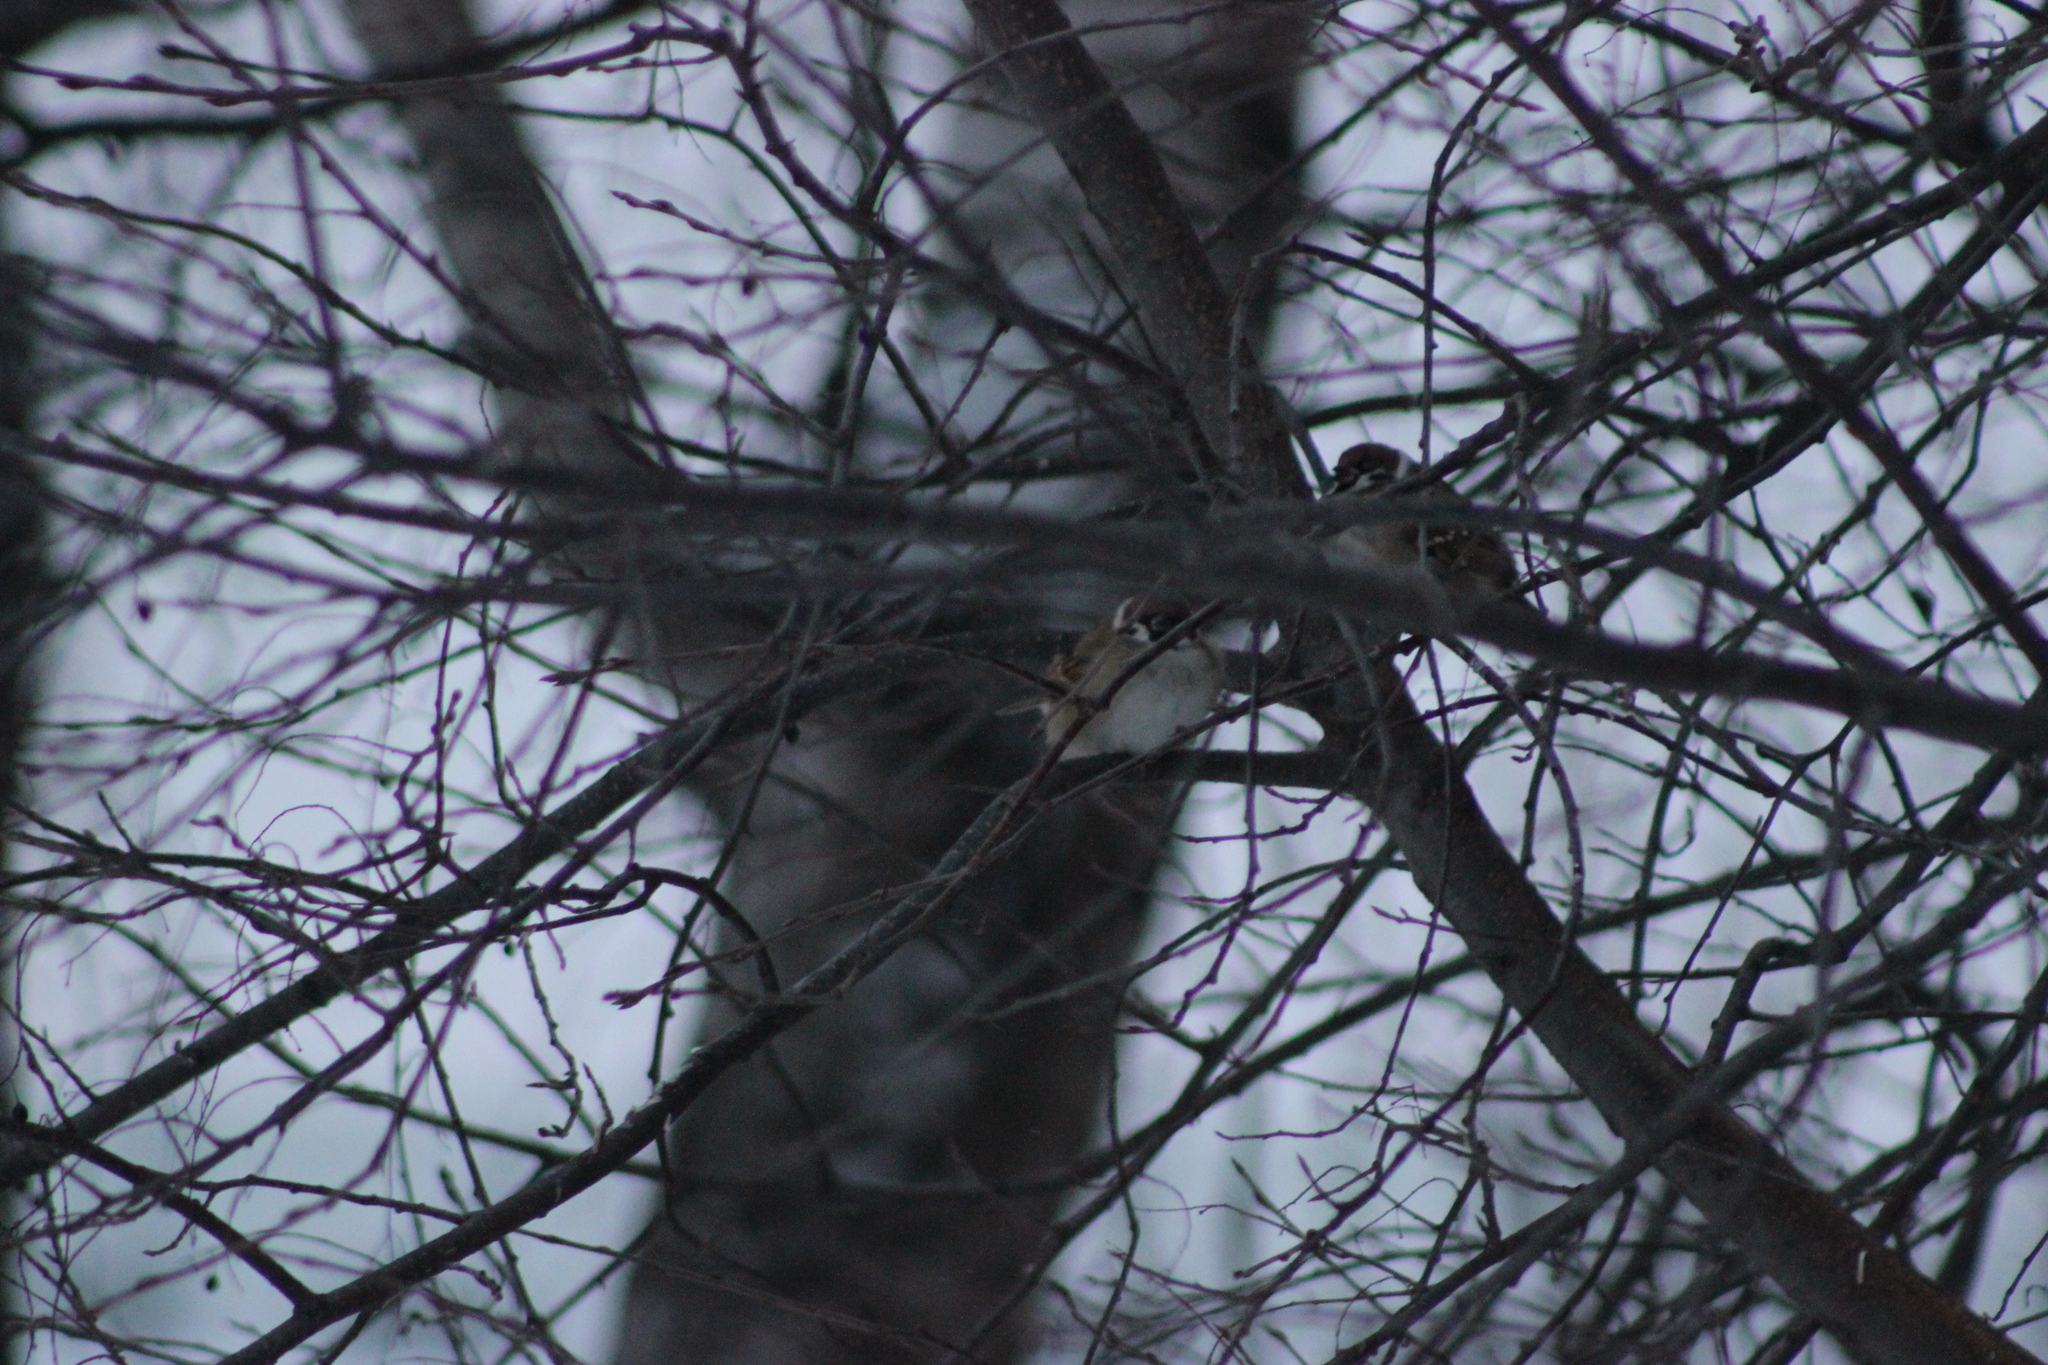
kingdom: Animalia
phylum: Chordata
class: Aves
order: Passeriformes
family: Passeridae
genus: Passer
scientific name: Passer montanus
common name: Eurasian tree sparrow
